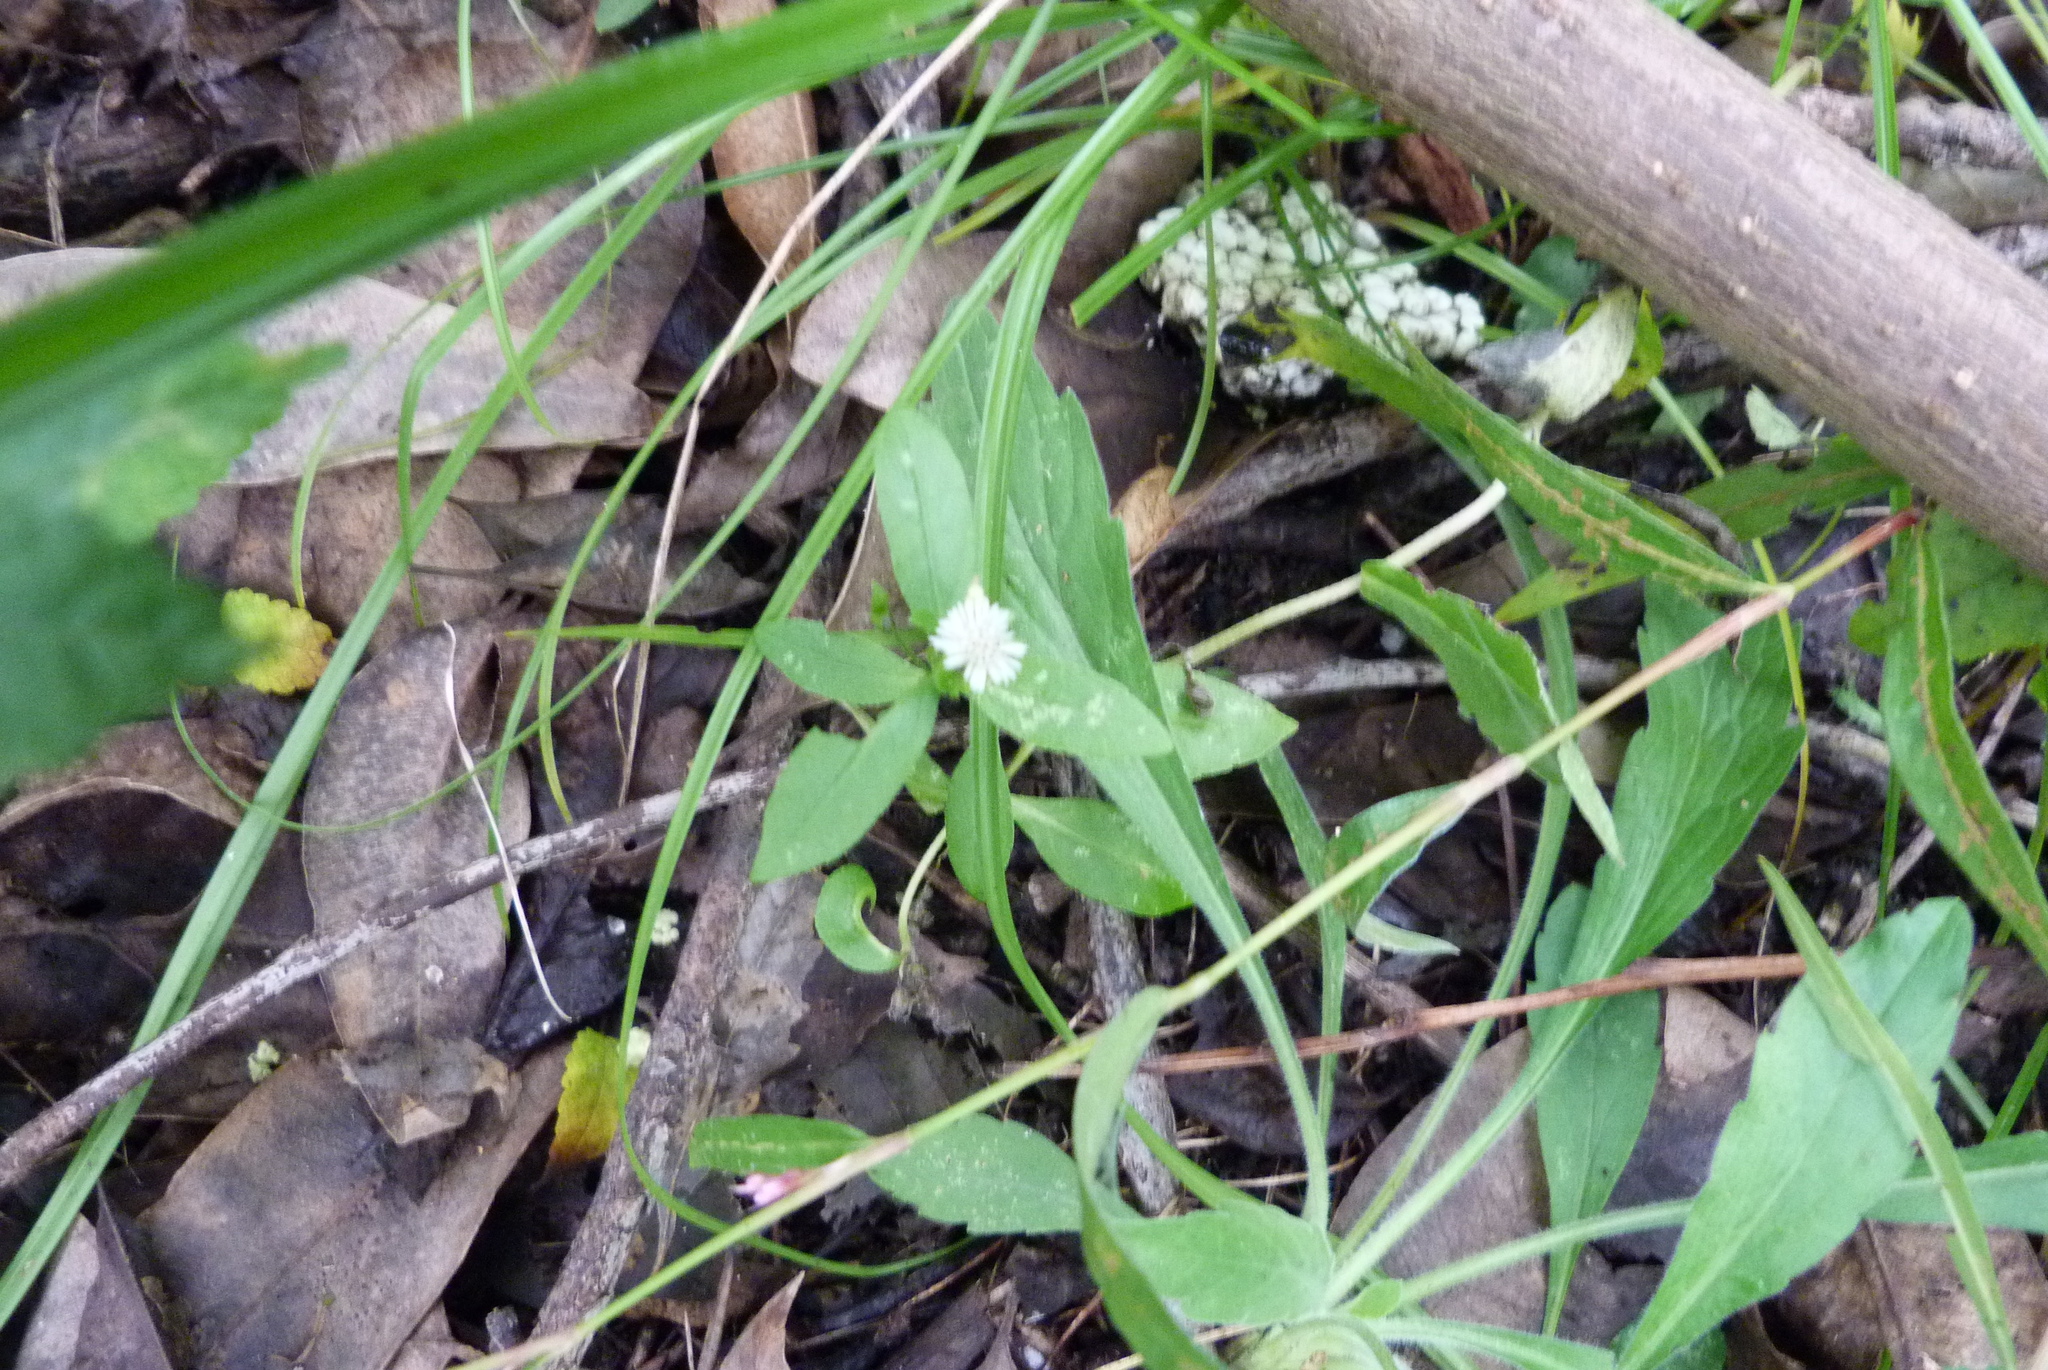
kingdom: Plantae
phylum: Tracheophyta
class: Magnoliopsida
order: Asterales
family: Asteraceae
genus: Eclipta
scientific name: Eclipta prostrata
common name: False daisy
